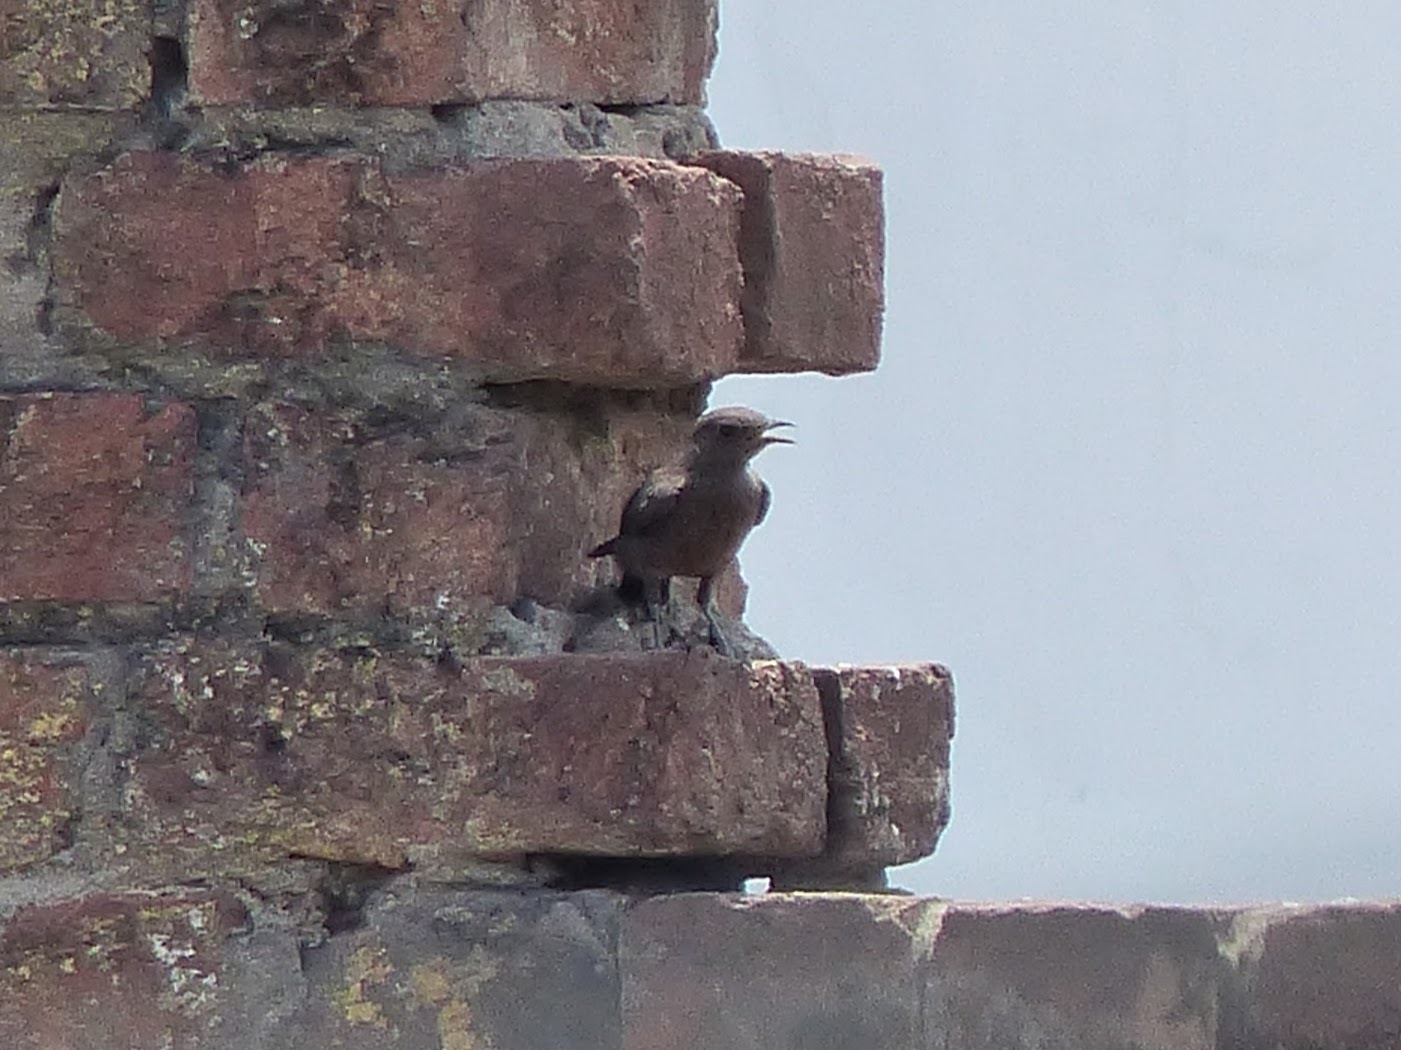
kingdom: Animalia
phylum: Chordata
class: Aves
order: Passeriformes
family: Muscicapidae
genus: Oenanthe
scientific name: Oenanthe fusca
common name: Brown rock chat
